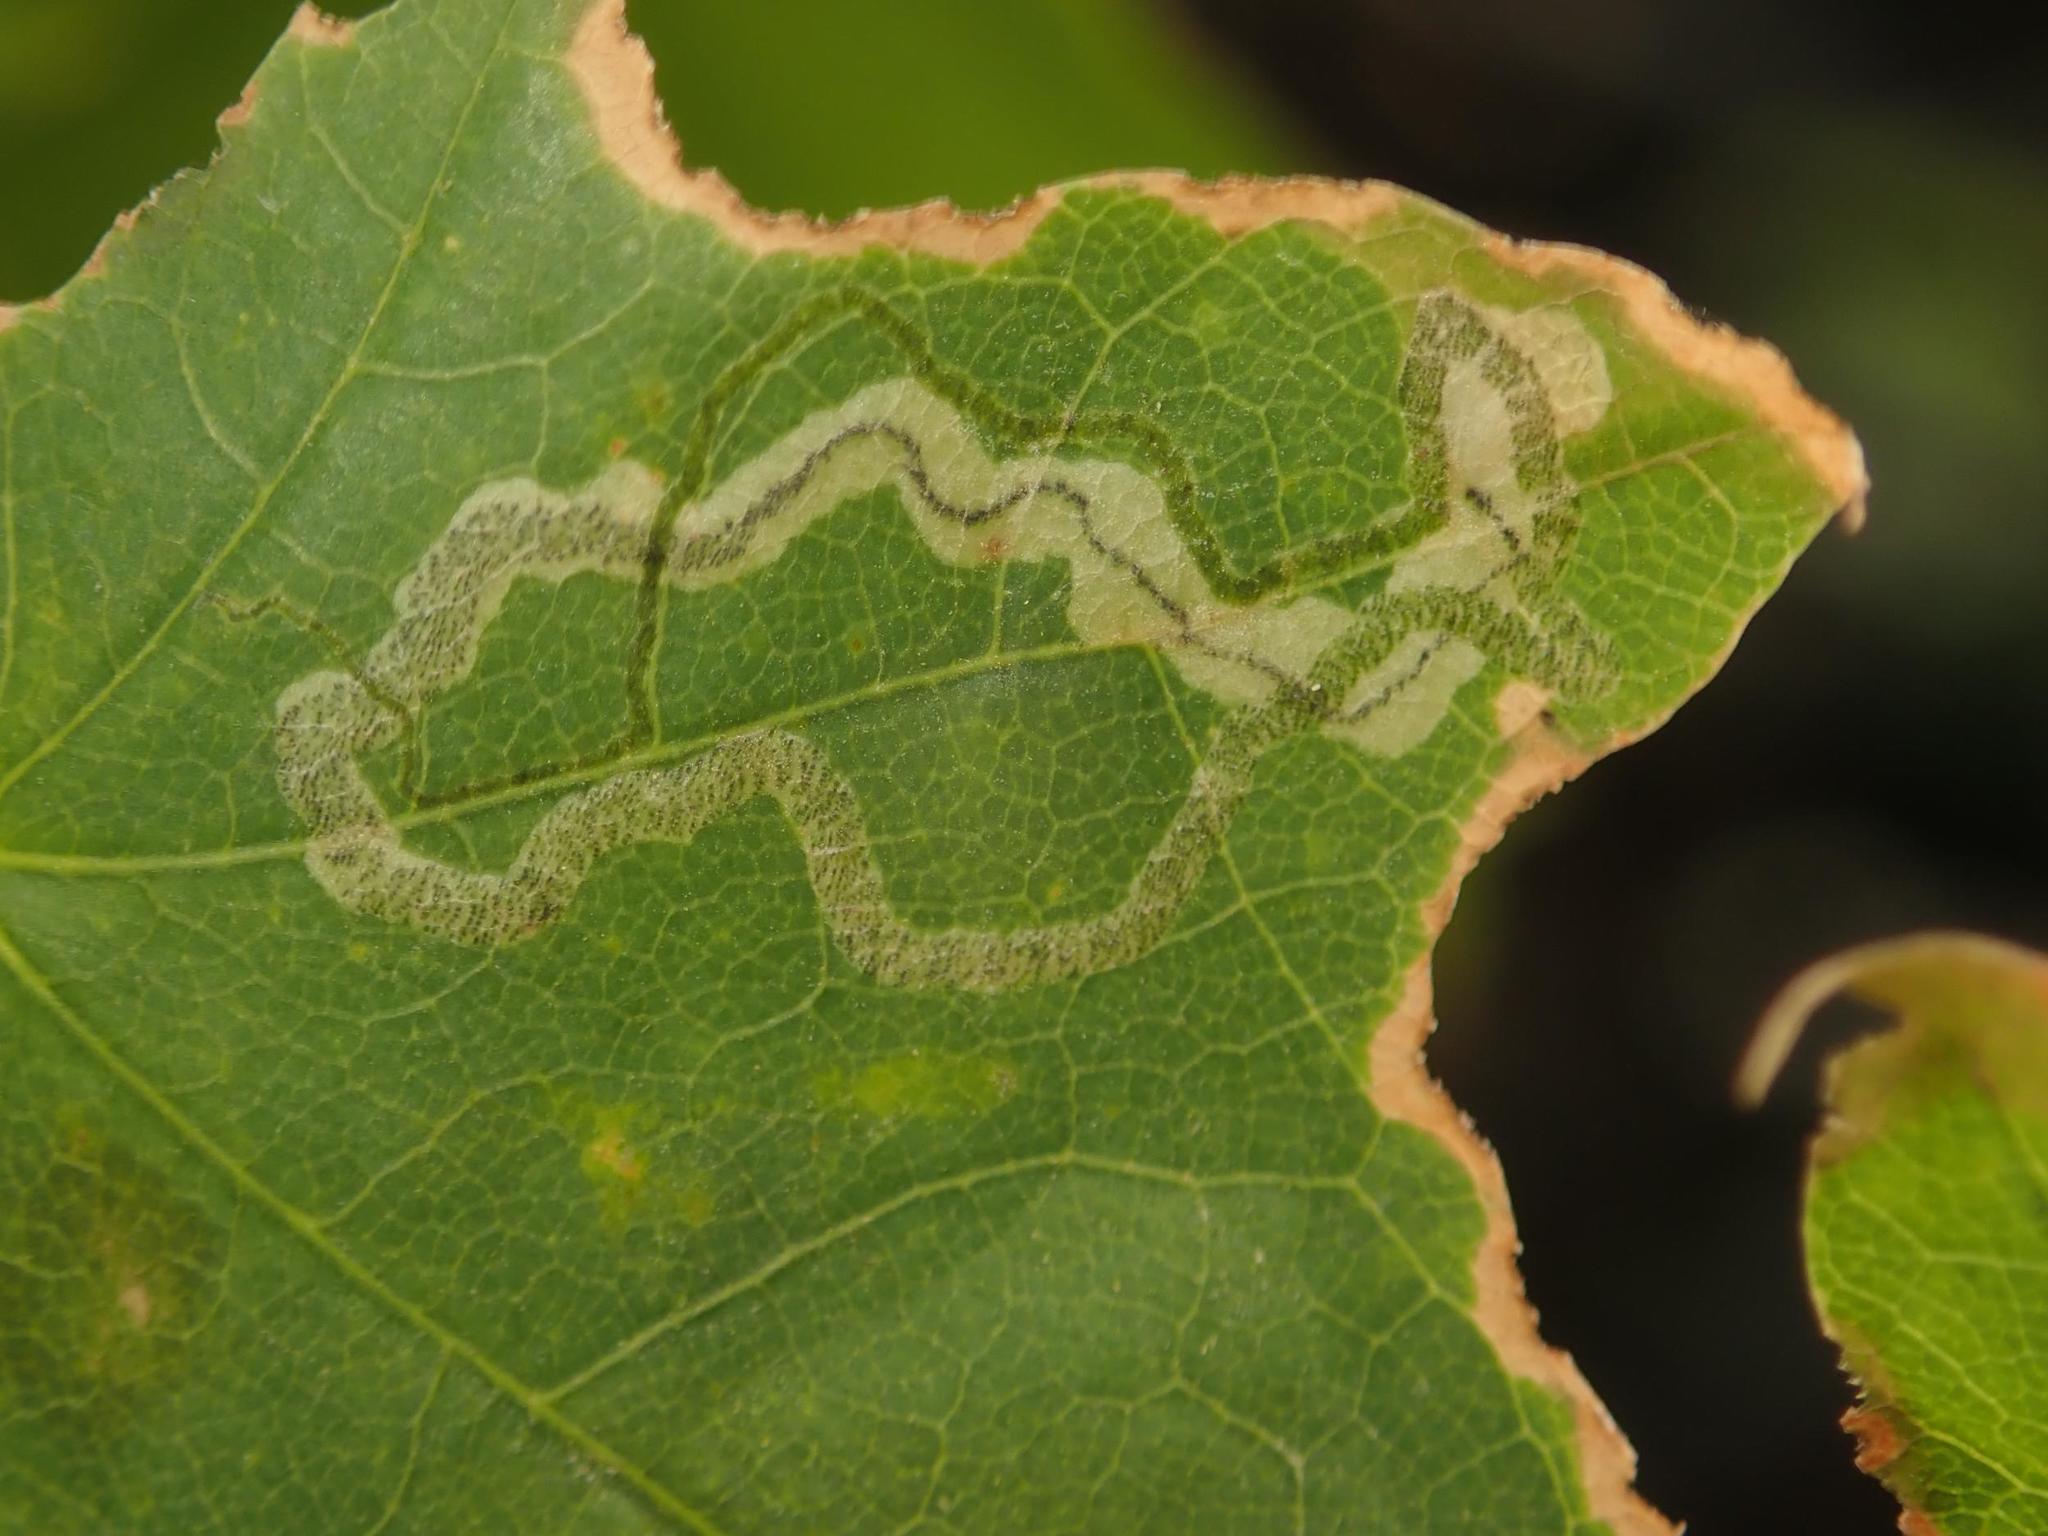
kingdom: Animalia
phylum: Arthropoda
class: Insecta
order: Lepidoptera
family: Nepticulidae
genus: Stigmella
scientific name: Stigmella aceris
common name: Scarce maple pigmy
